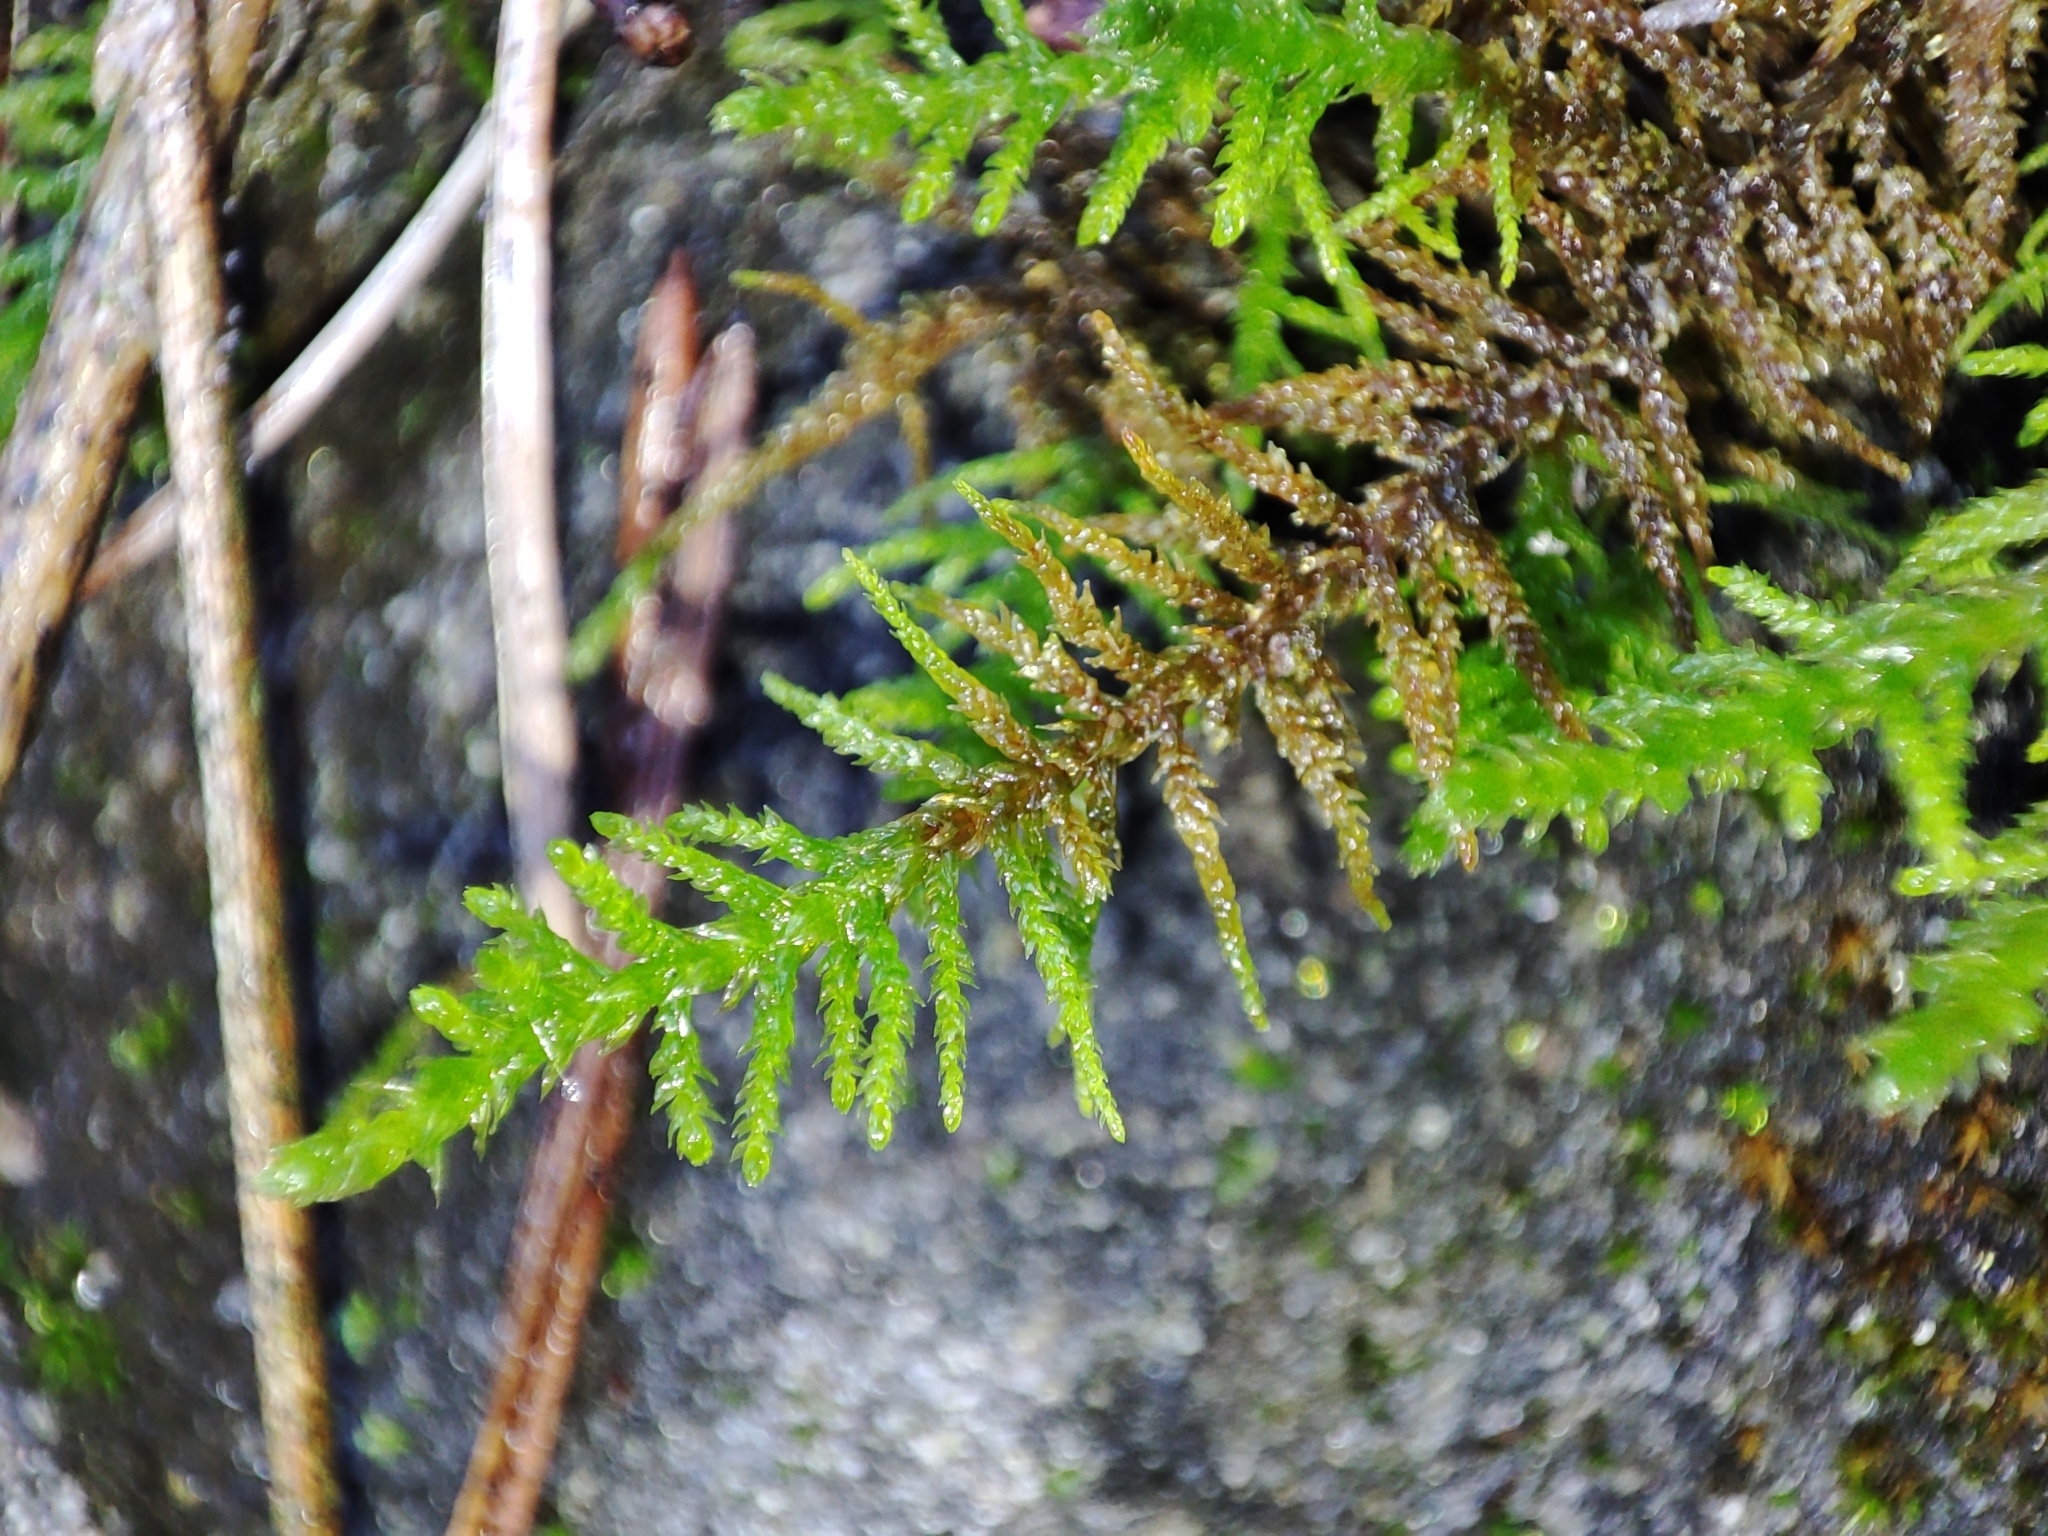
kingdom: Plantae
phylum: Bryophyta
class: Bryopsida
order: Hypnales
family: Thuidiaceae
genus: Abietinella
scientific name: Abietinella abietina
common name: Wiry fern moss
